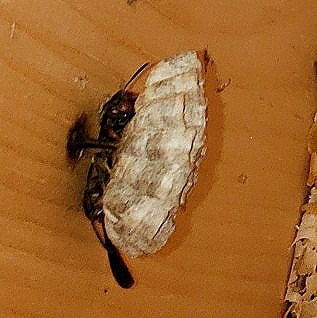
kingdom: Animalia
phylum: Arthropoda
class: Insecta
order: Hymenoptera
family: Vespidae
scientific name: Vespidae
